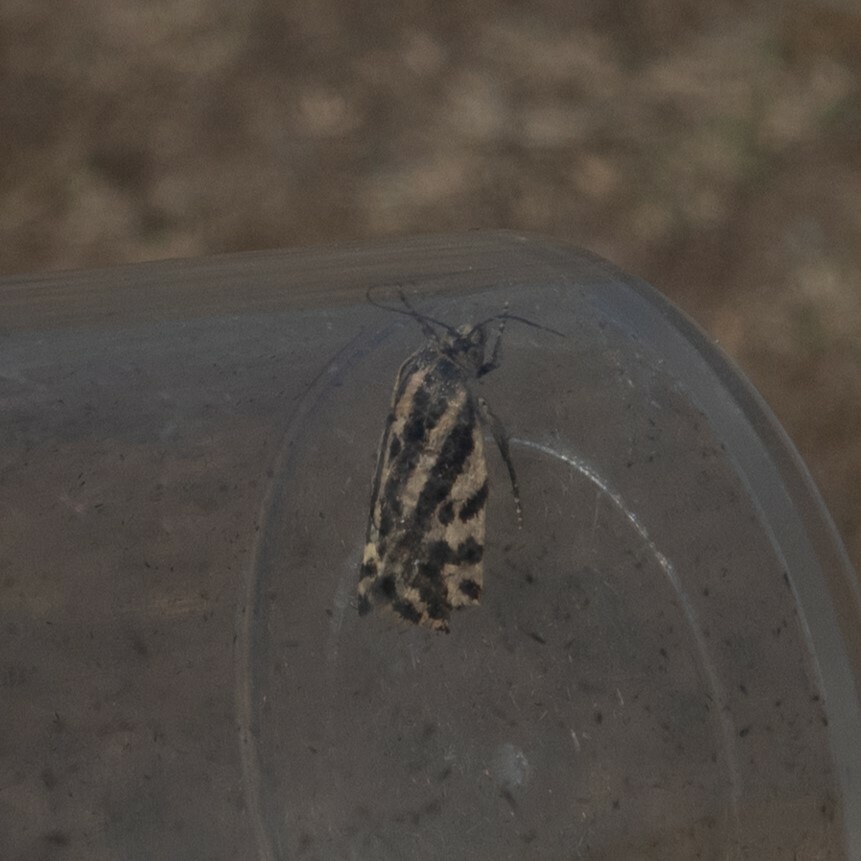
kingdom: Animalia
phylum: Arthropoda
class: Insecta
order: Lepidoptera
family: Noctuidae
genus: Acontia
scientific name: Acontia trabealis
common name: Spotted sulphur
